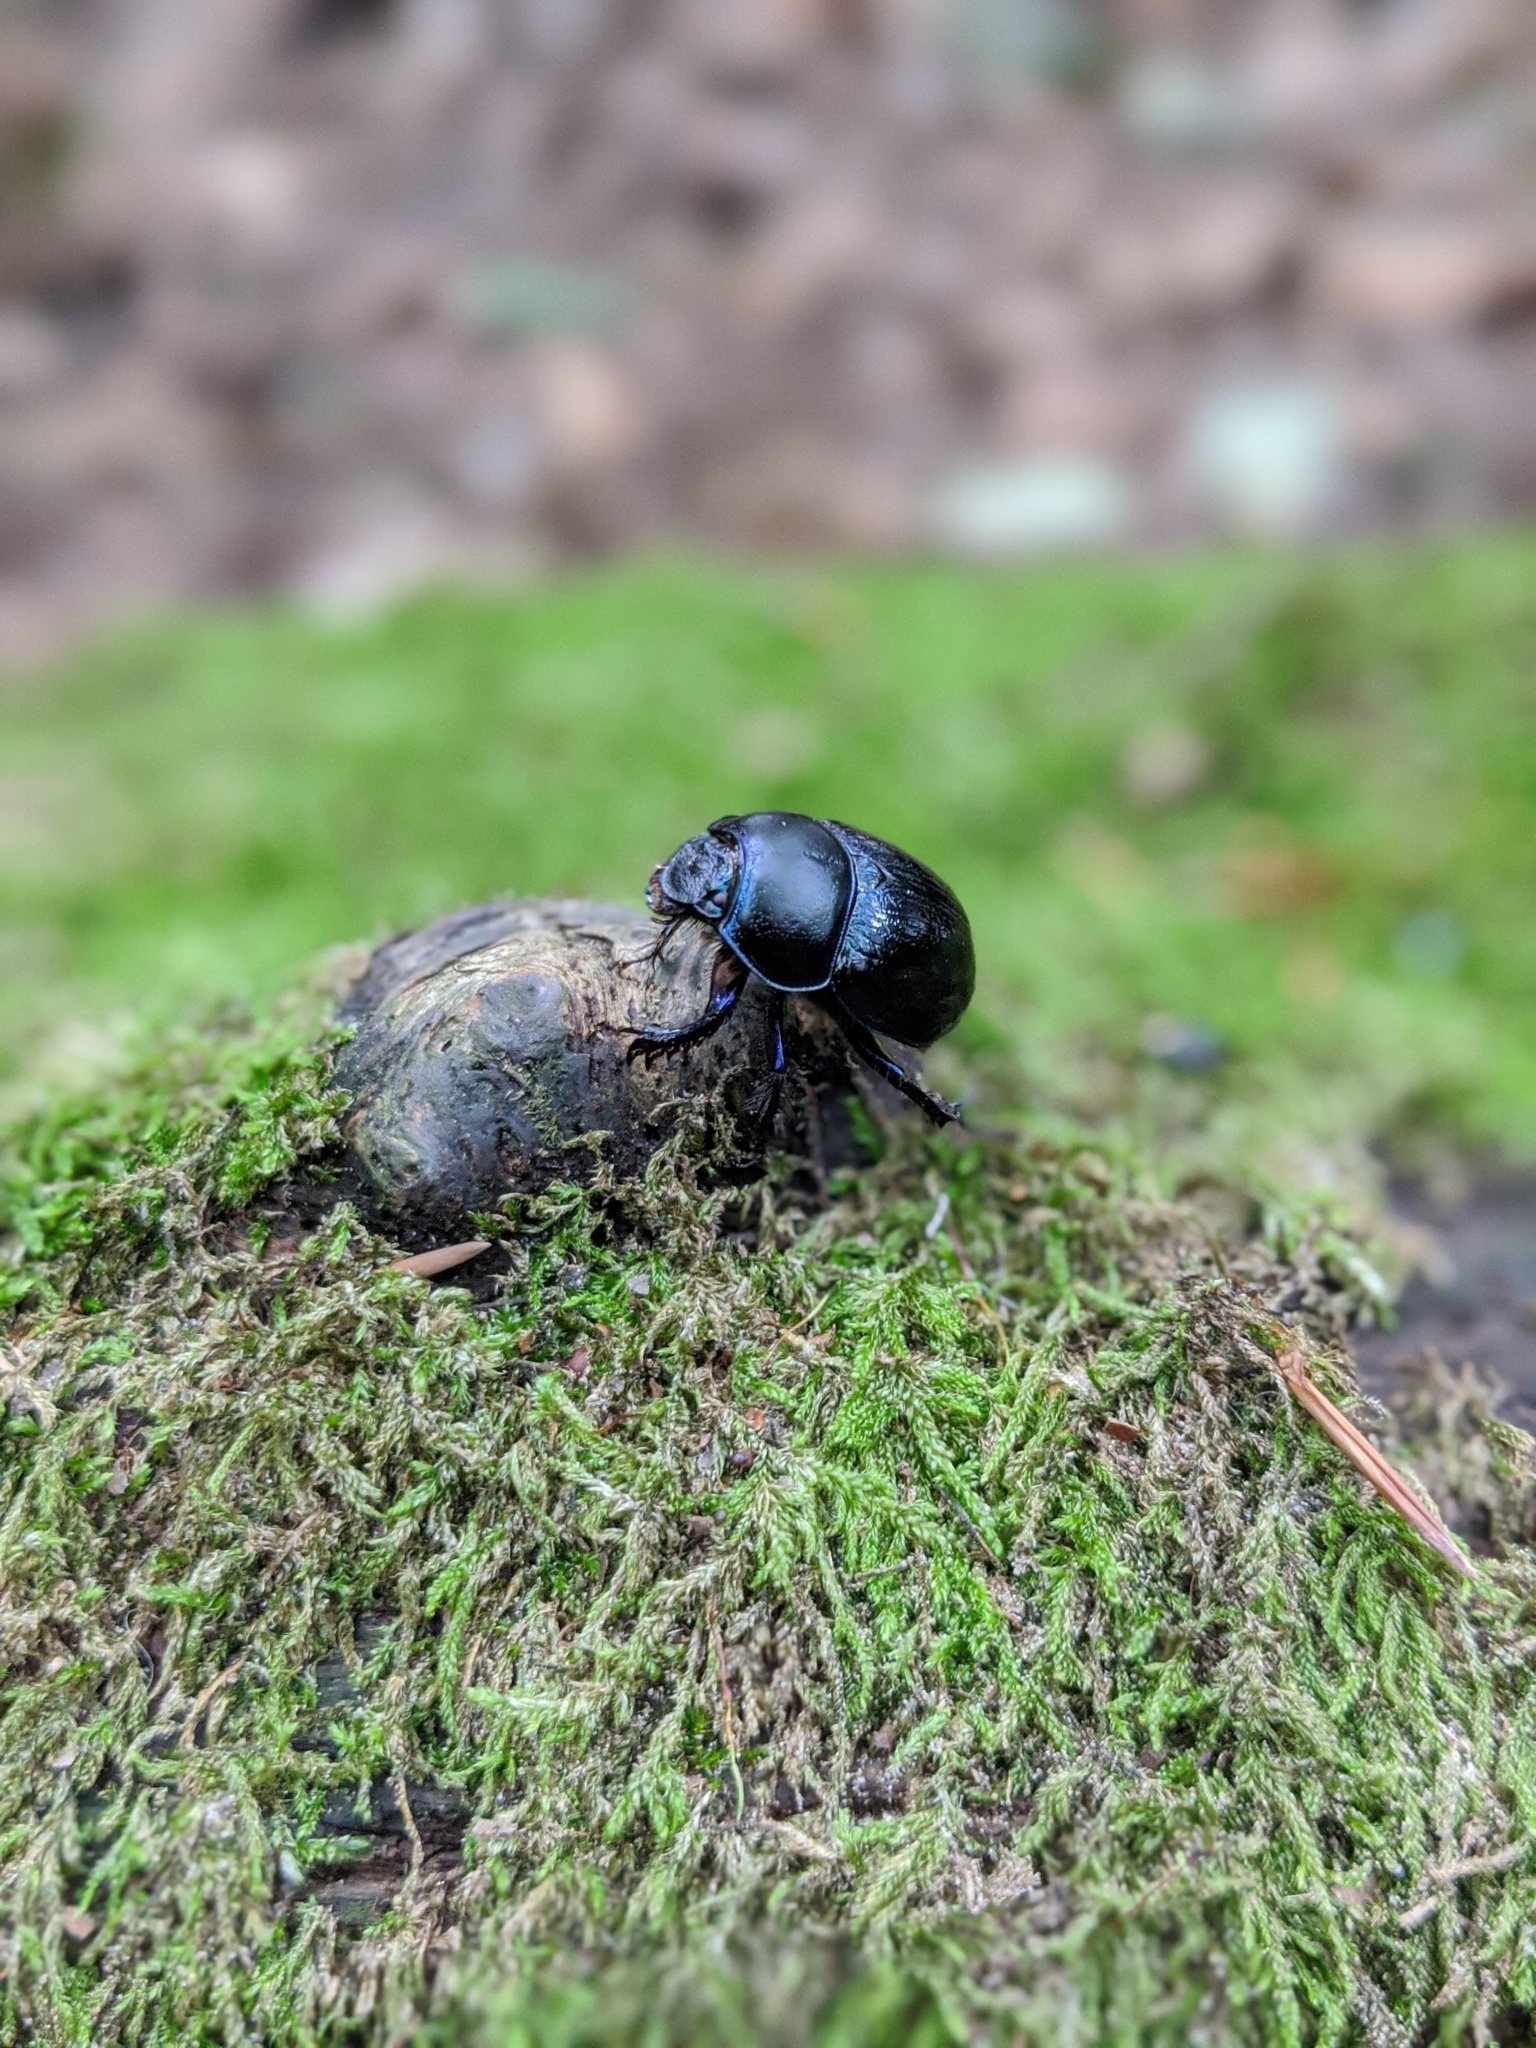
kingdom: Animalia
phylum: Arthropoda
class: Insecta
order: Coleoptera
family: Geotrupidae
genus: Anoplotrupes
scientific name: Anoplotrupes stercorosus
